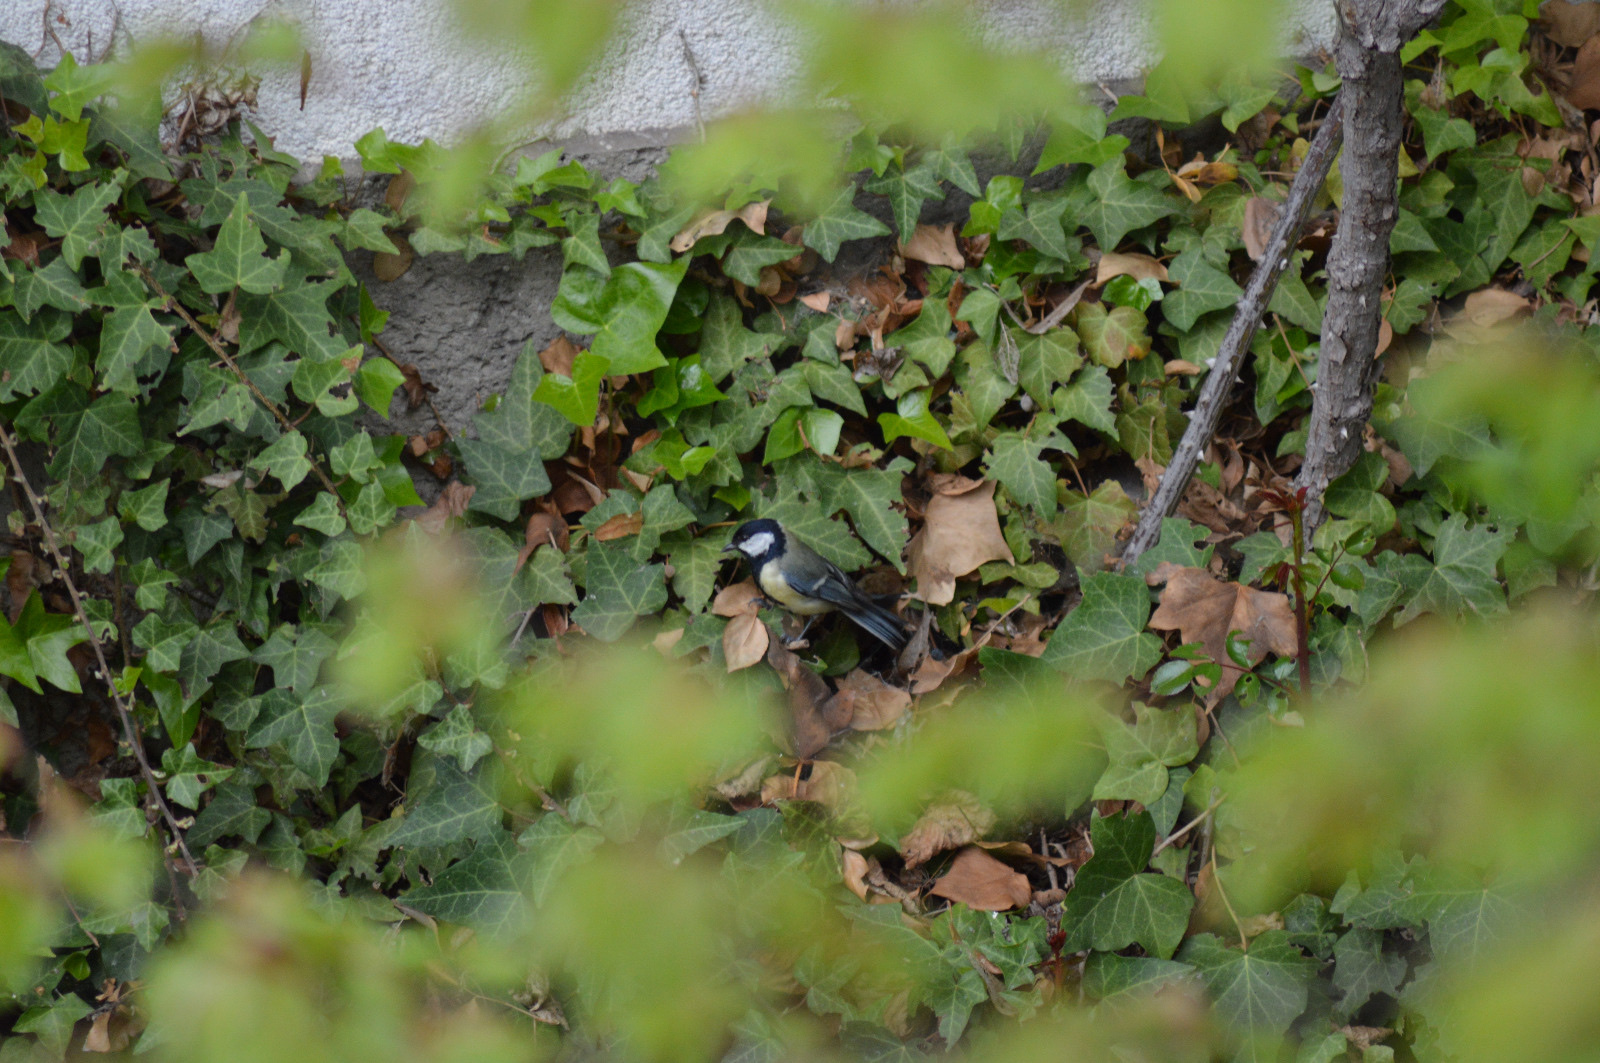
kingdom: Animalia
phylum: Chordata
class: Aves
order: Passeriformes
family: Paridae
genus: Parus
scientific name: Parus major
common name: Great tit
